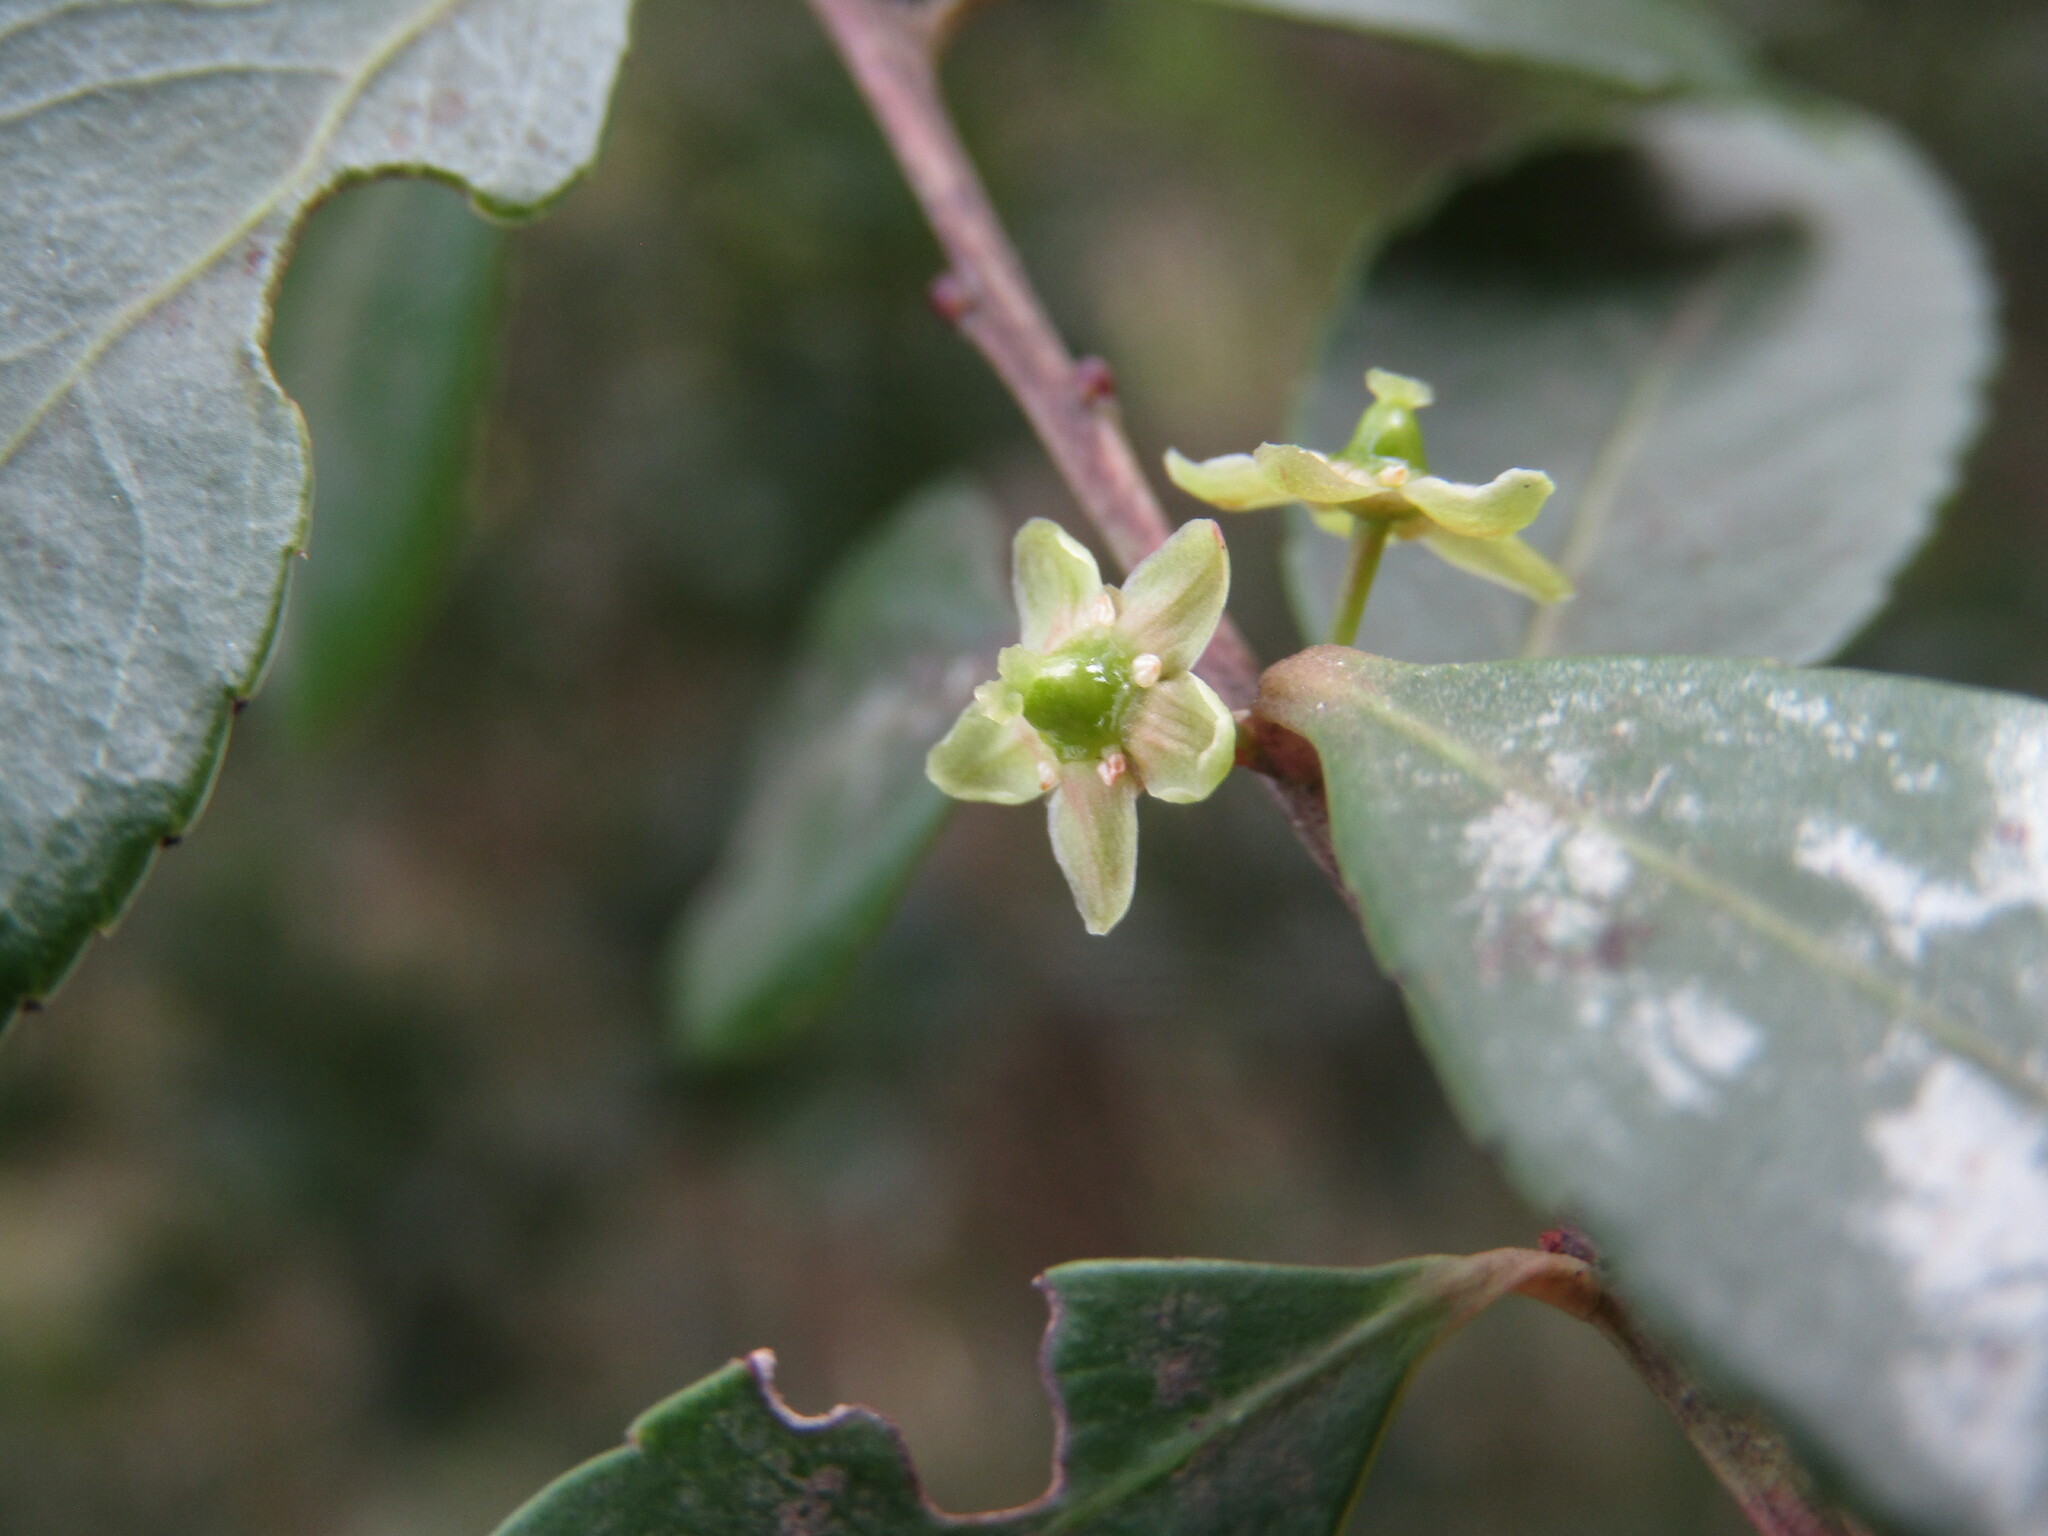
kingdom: Plantae
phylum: Tracheophyta
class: Magnoliopsida
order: Celastrales
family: Celastraceae
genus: Maytenus
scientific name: Maytenus boaria
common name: Mayten
